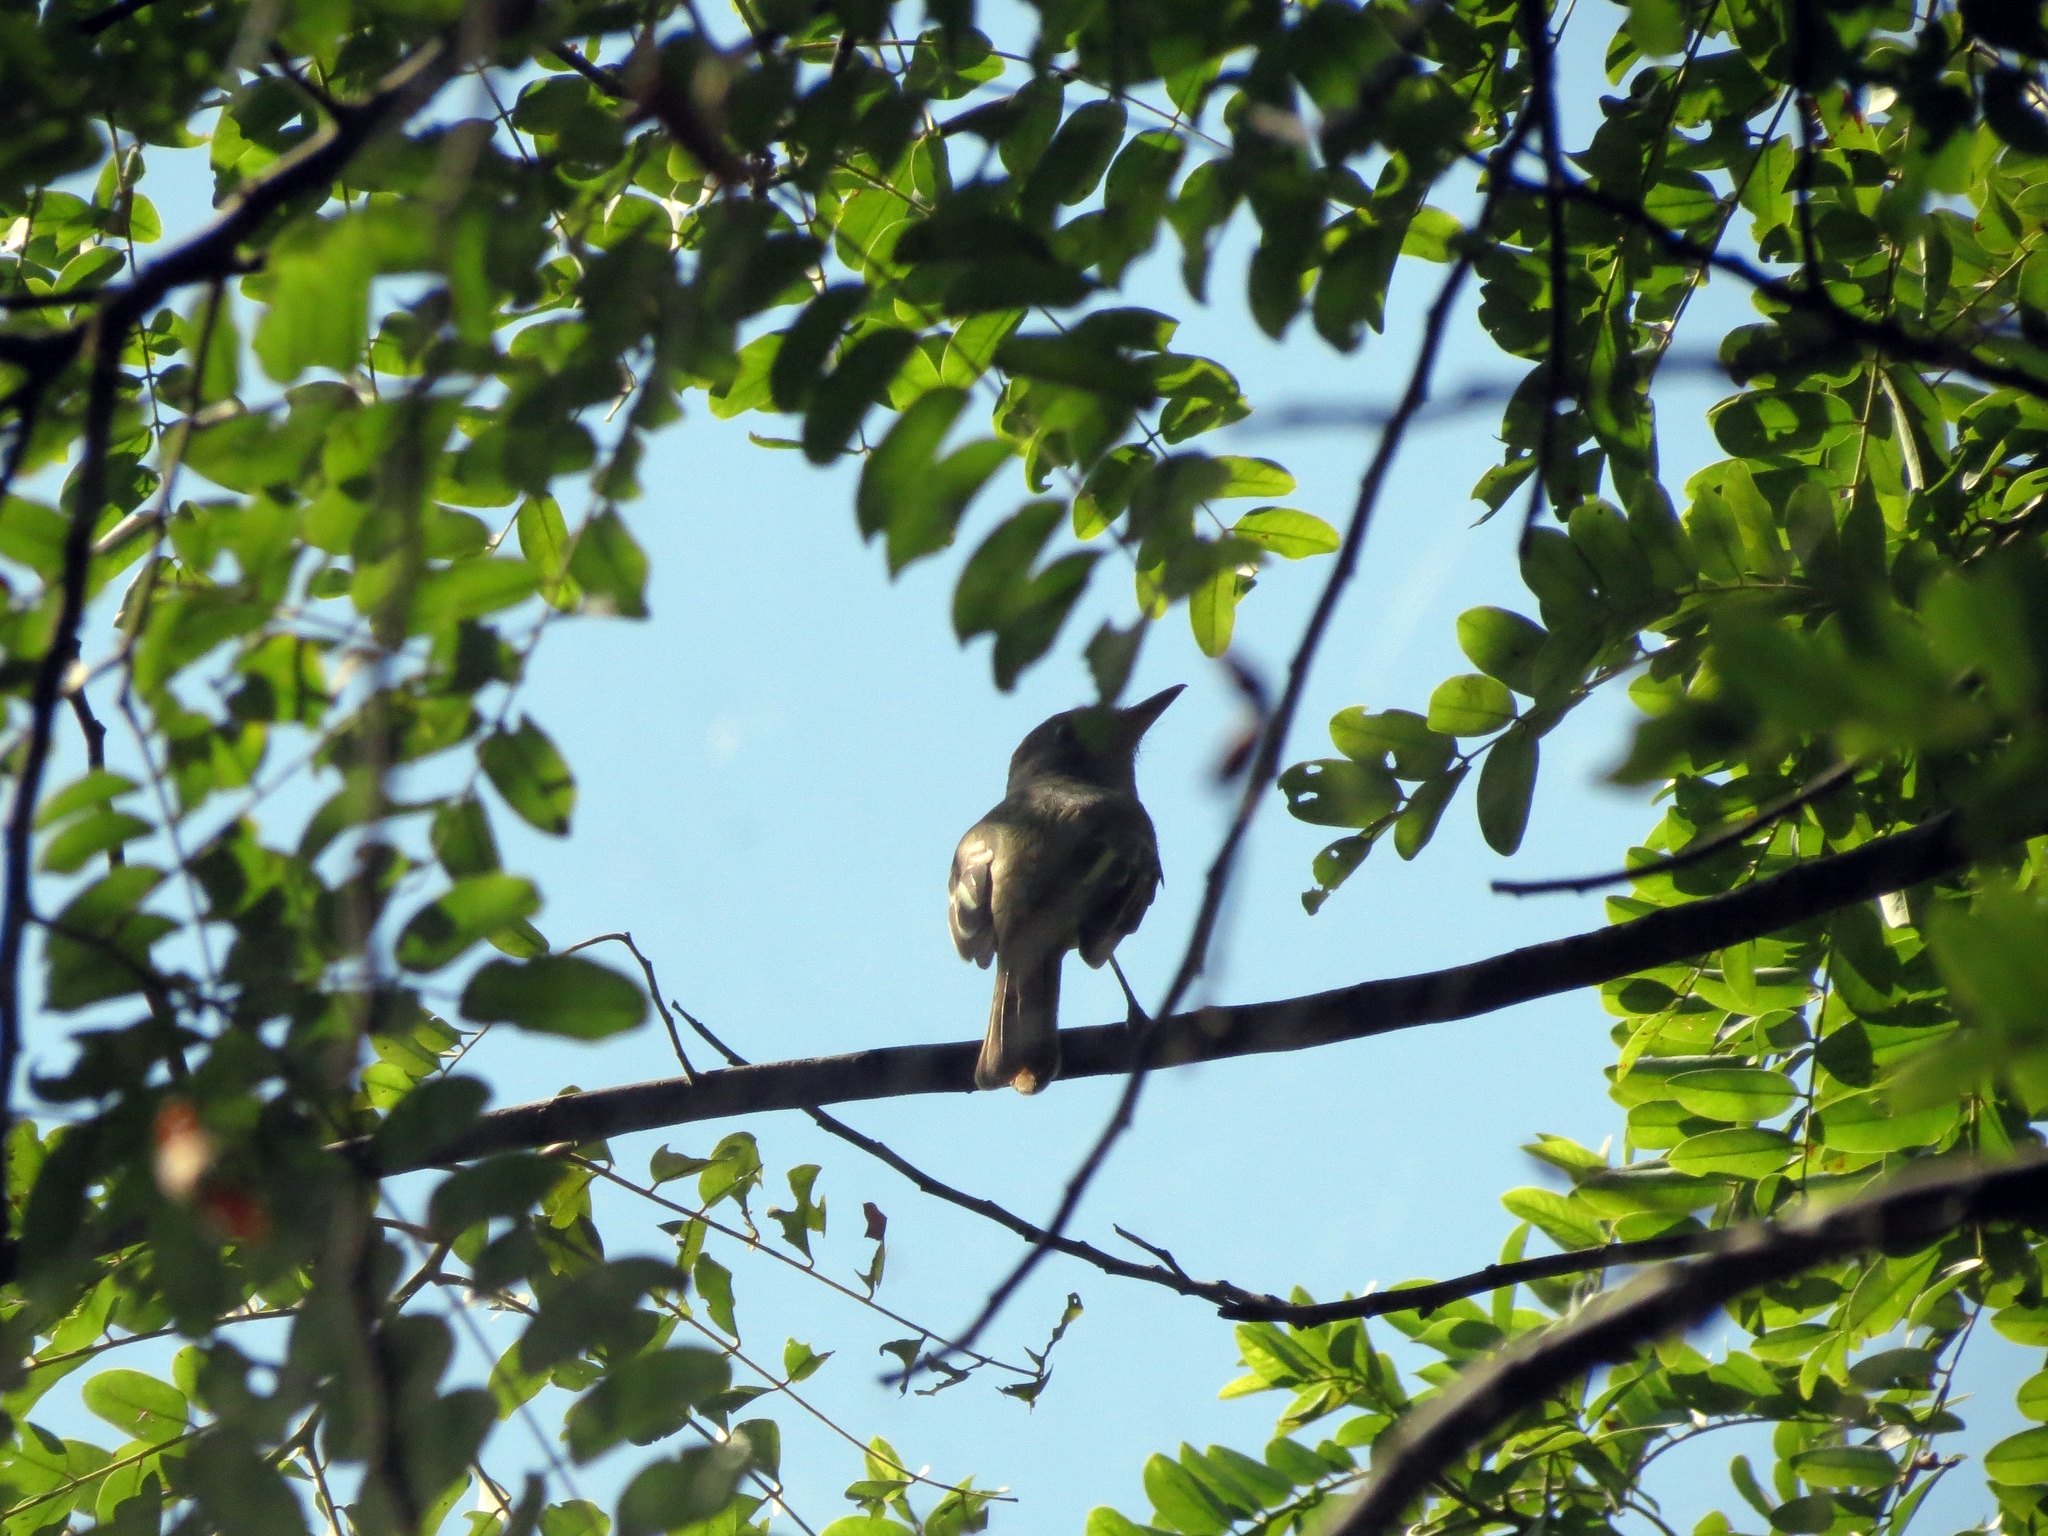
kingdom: Animalia
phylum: Chordata
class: Aves
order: Passeriformes
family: Tyrannidae
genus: Myiarchus
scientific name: Myiarchus crinitus
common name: Great crested flycatcher
